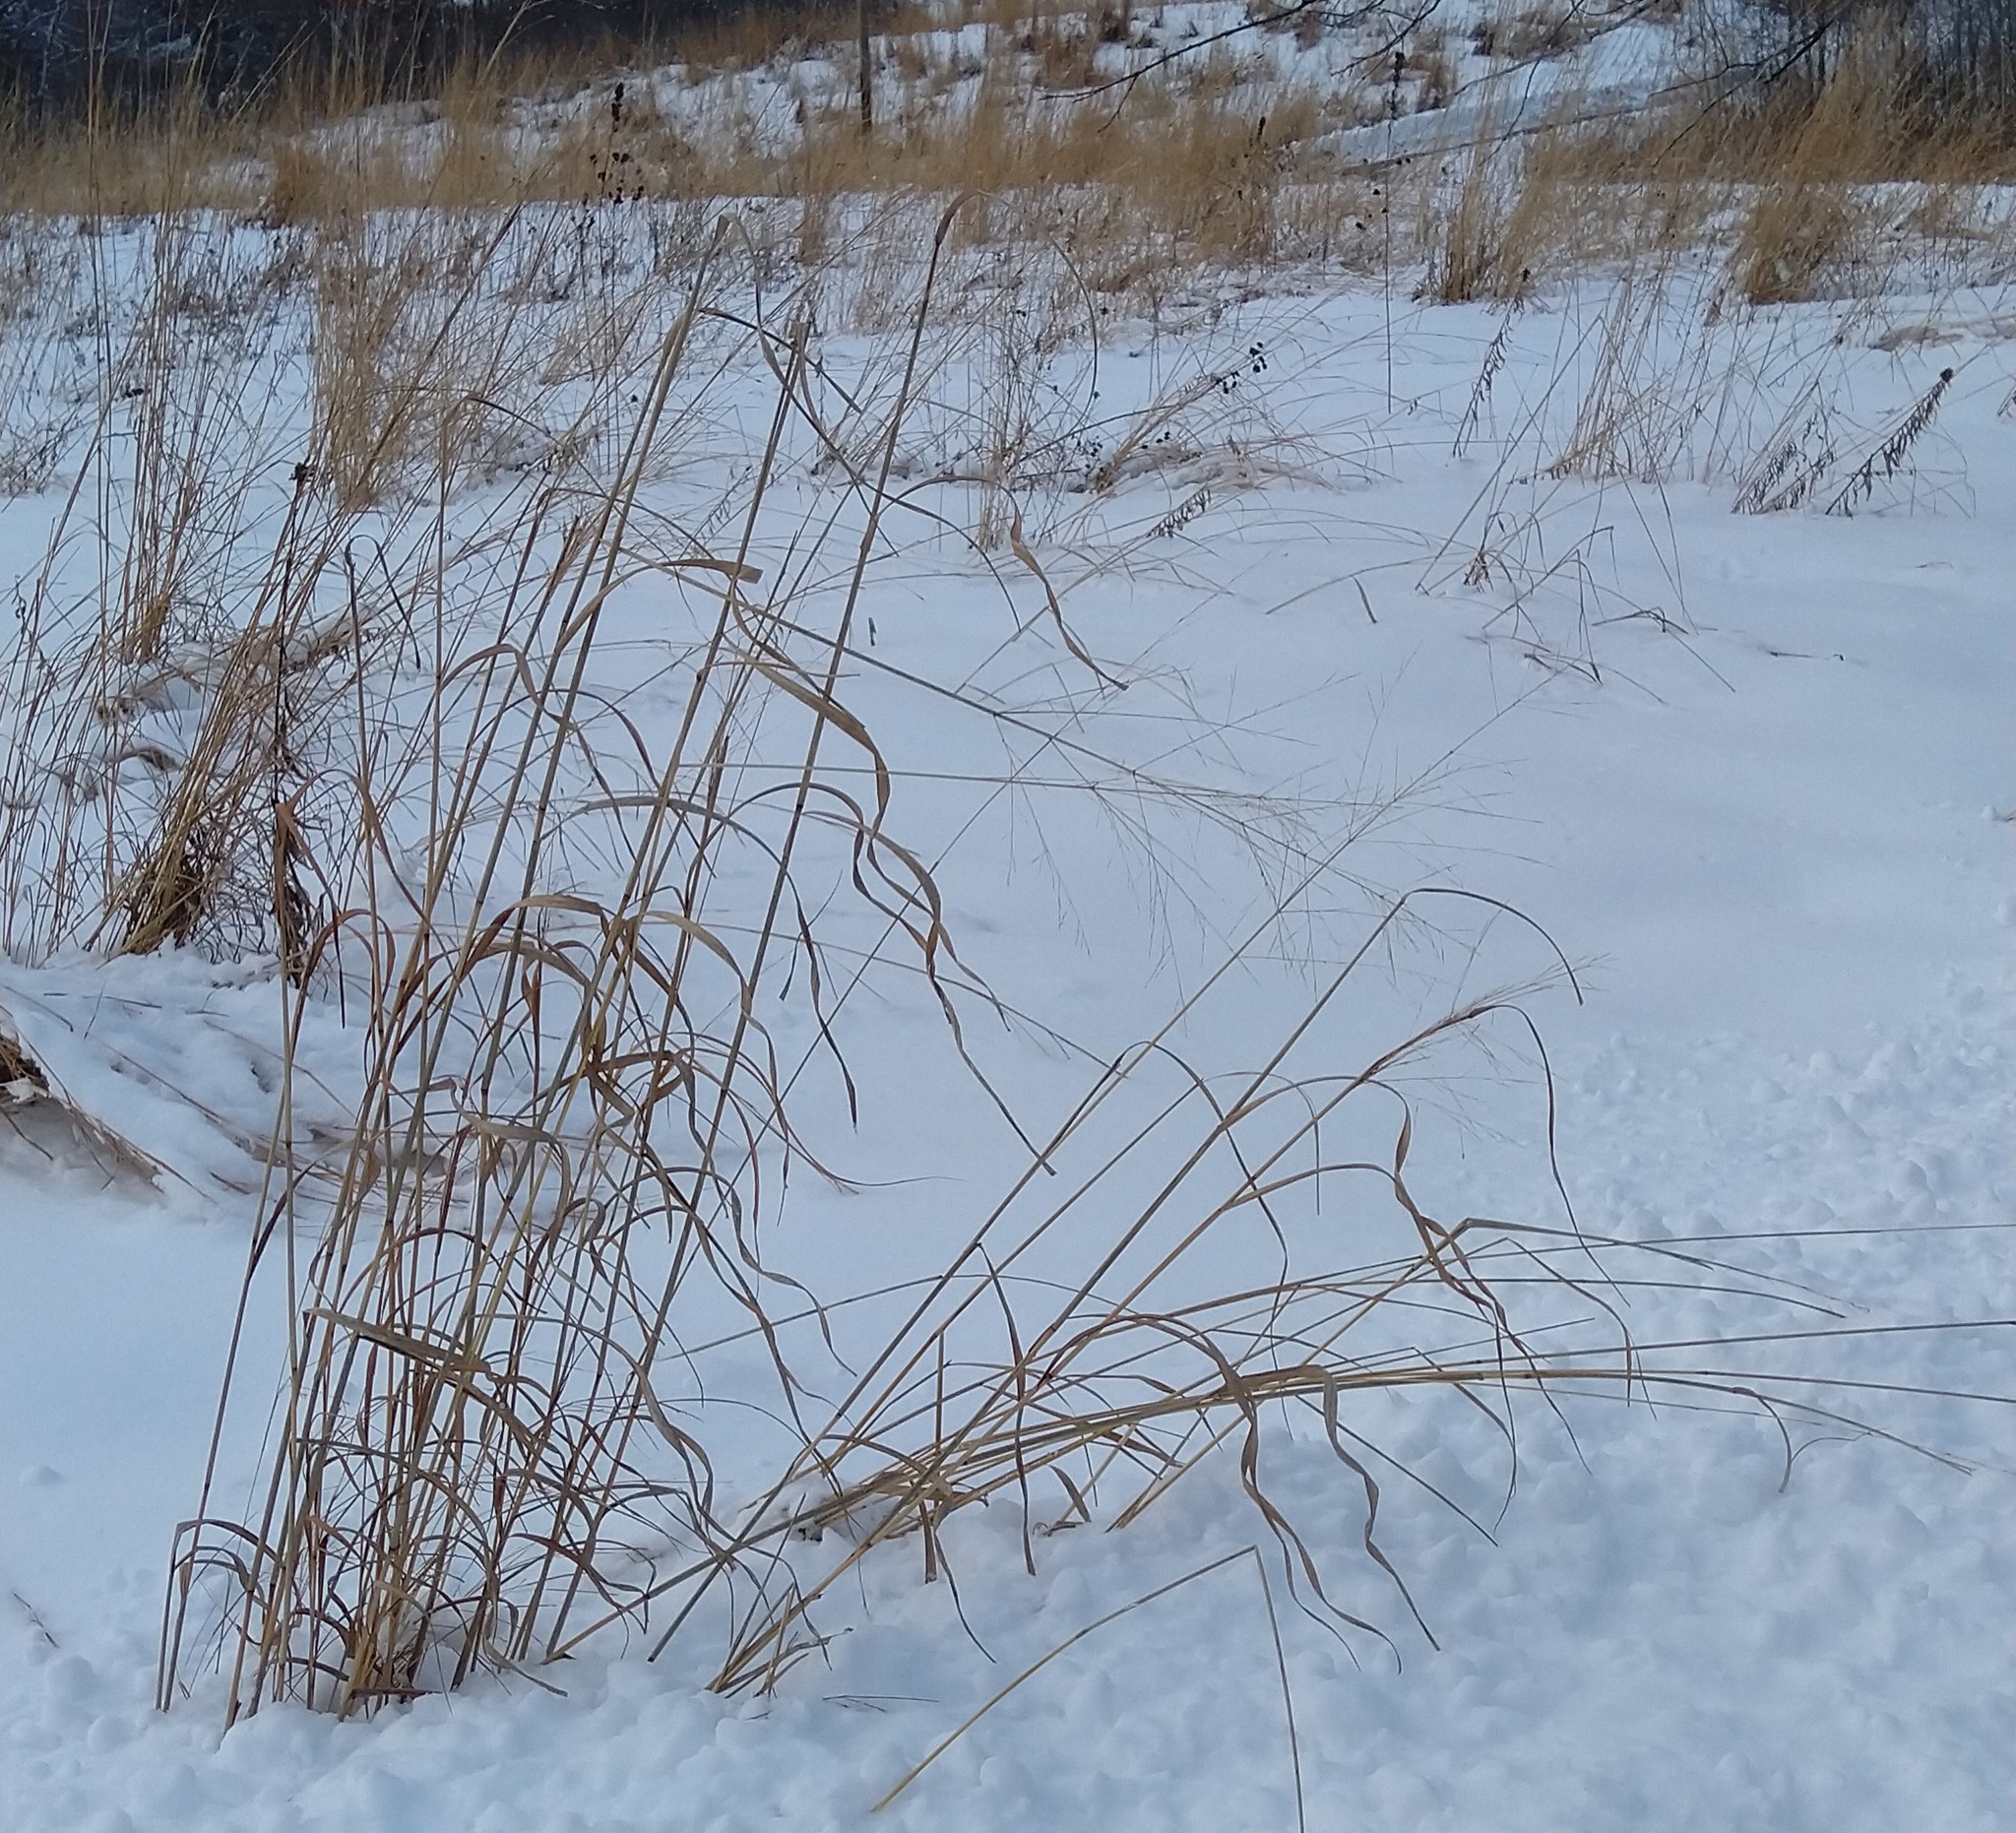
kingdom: Plantae
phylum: Tracheophyta
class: Liliopsida
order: Poales
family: Poaceae
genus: Panicum
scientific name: Panicum virgatum
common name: Switchgrass
